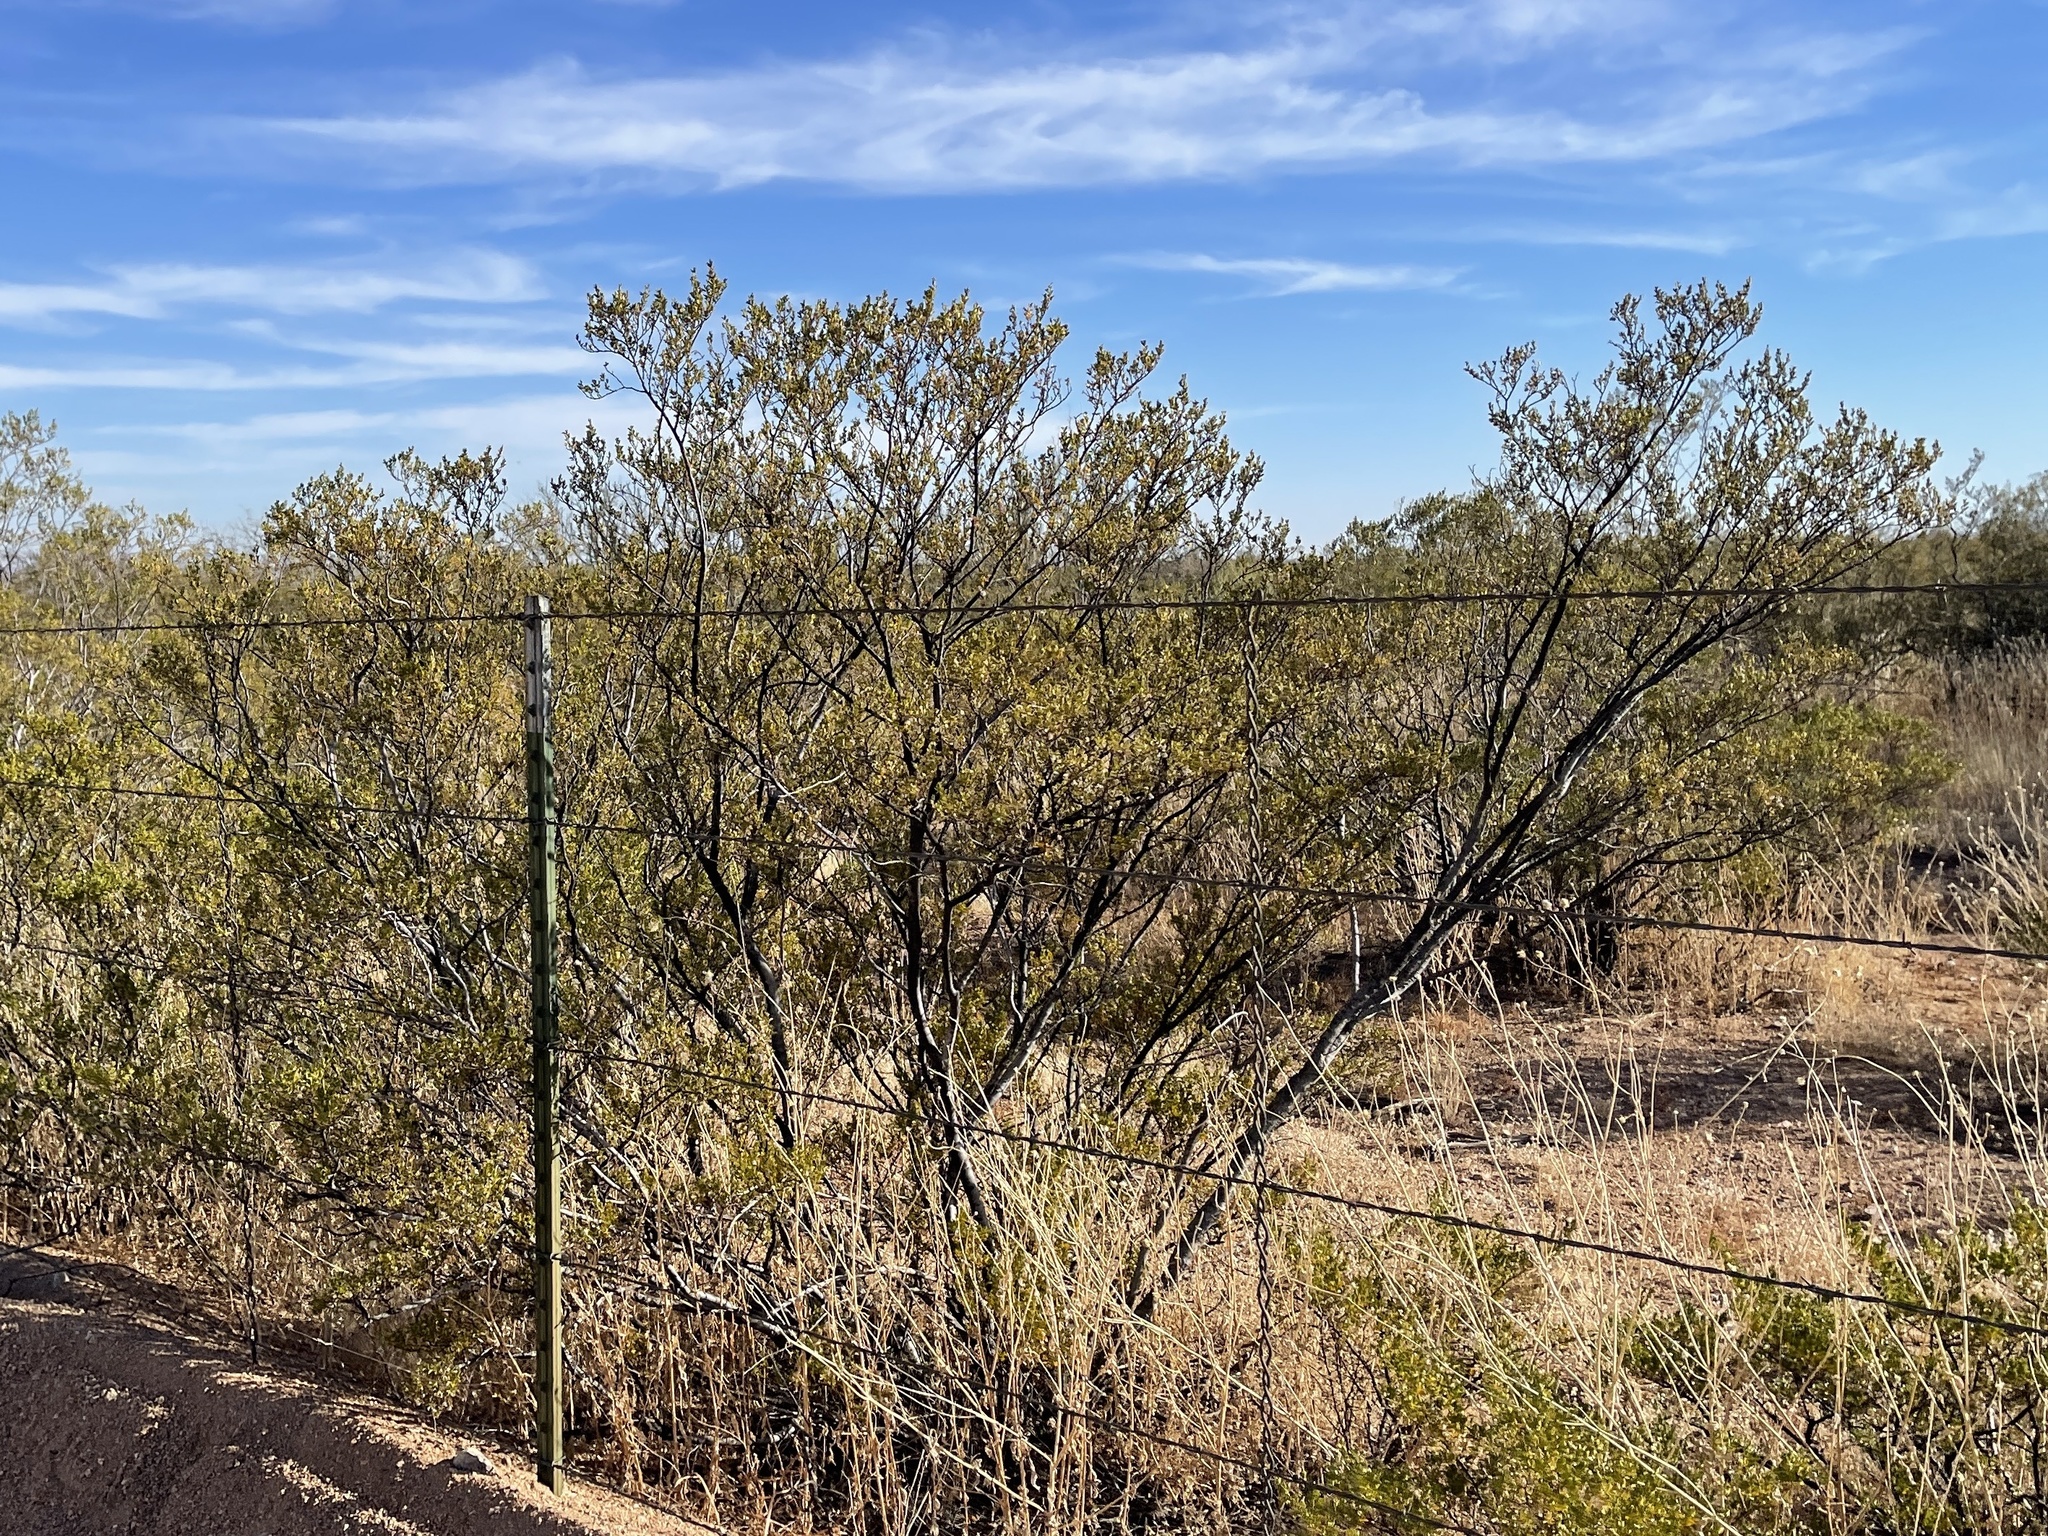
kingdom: Plantae
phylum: Tracheophyta
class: Magnoliopsida
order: Zygophyllales
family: Zygophyllaceae
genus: Larrea
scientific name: Larrea tridentata
